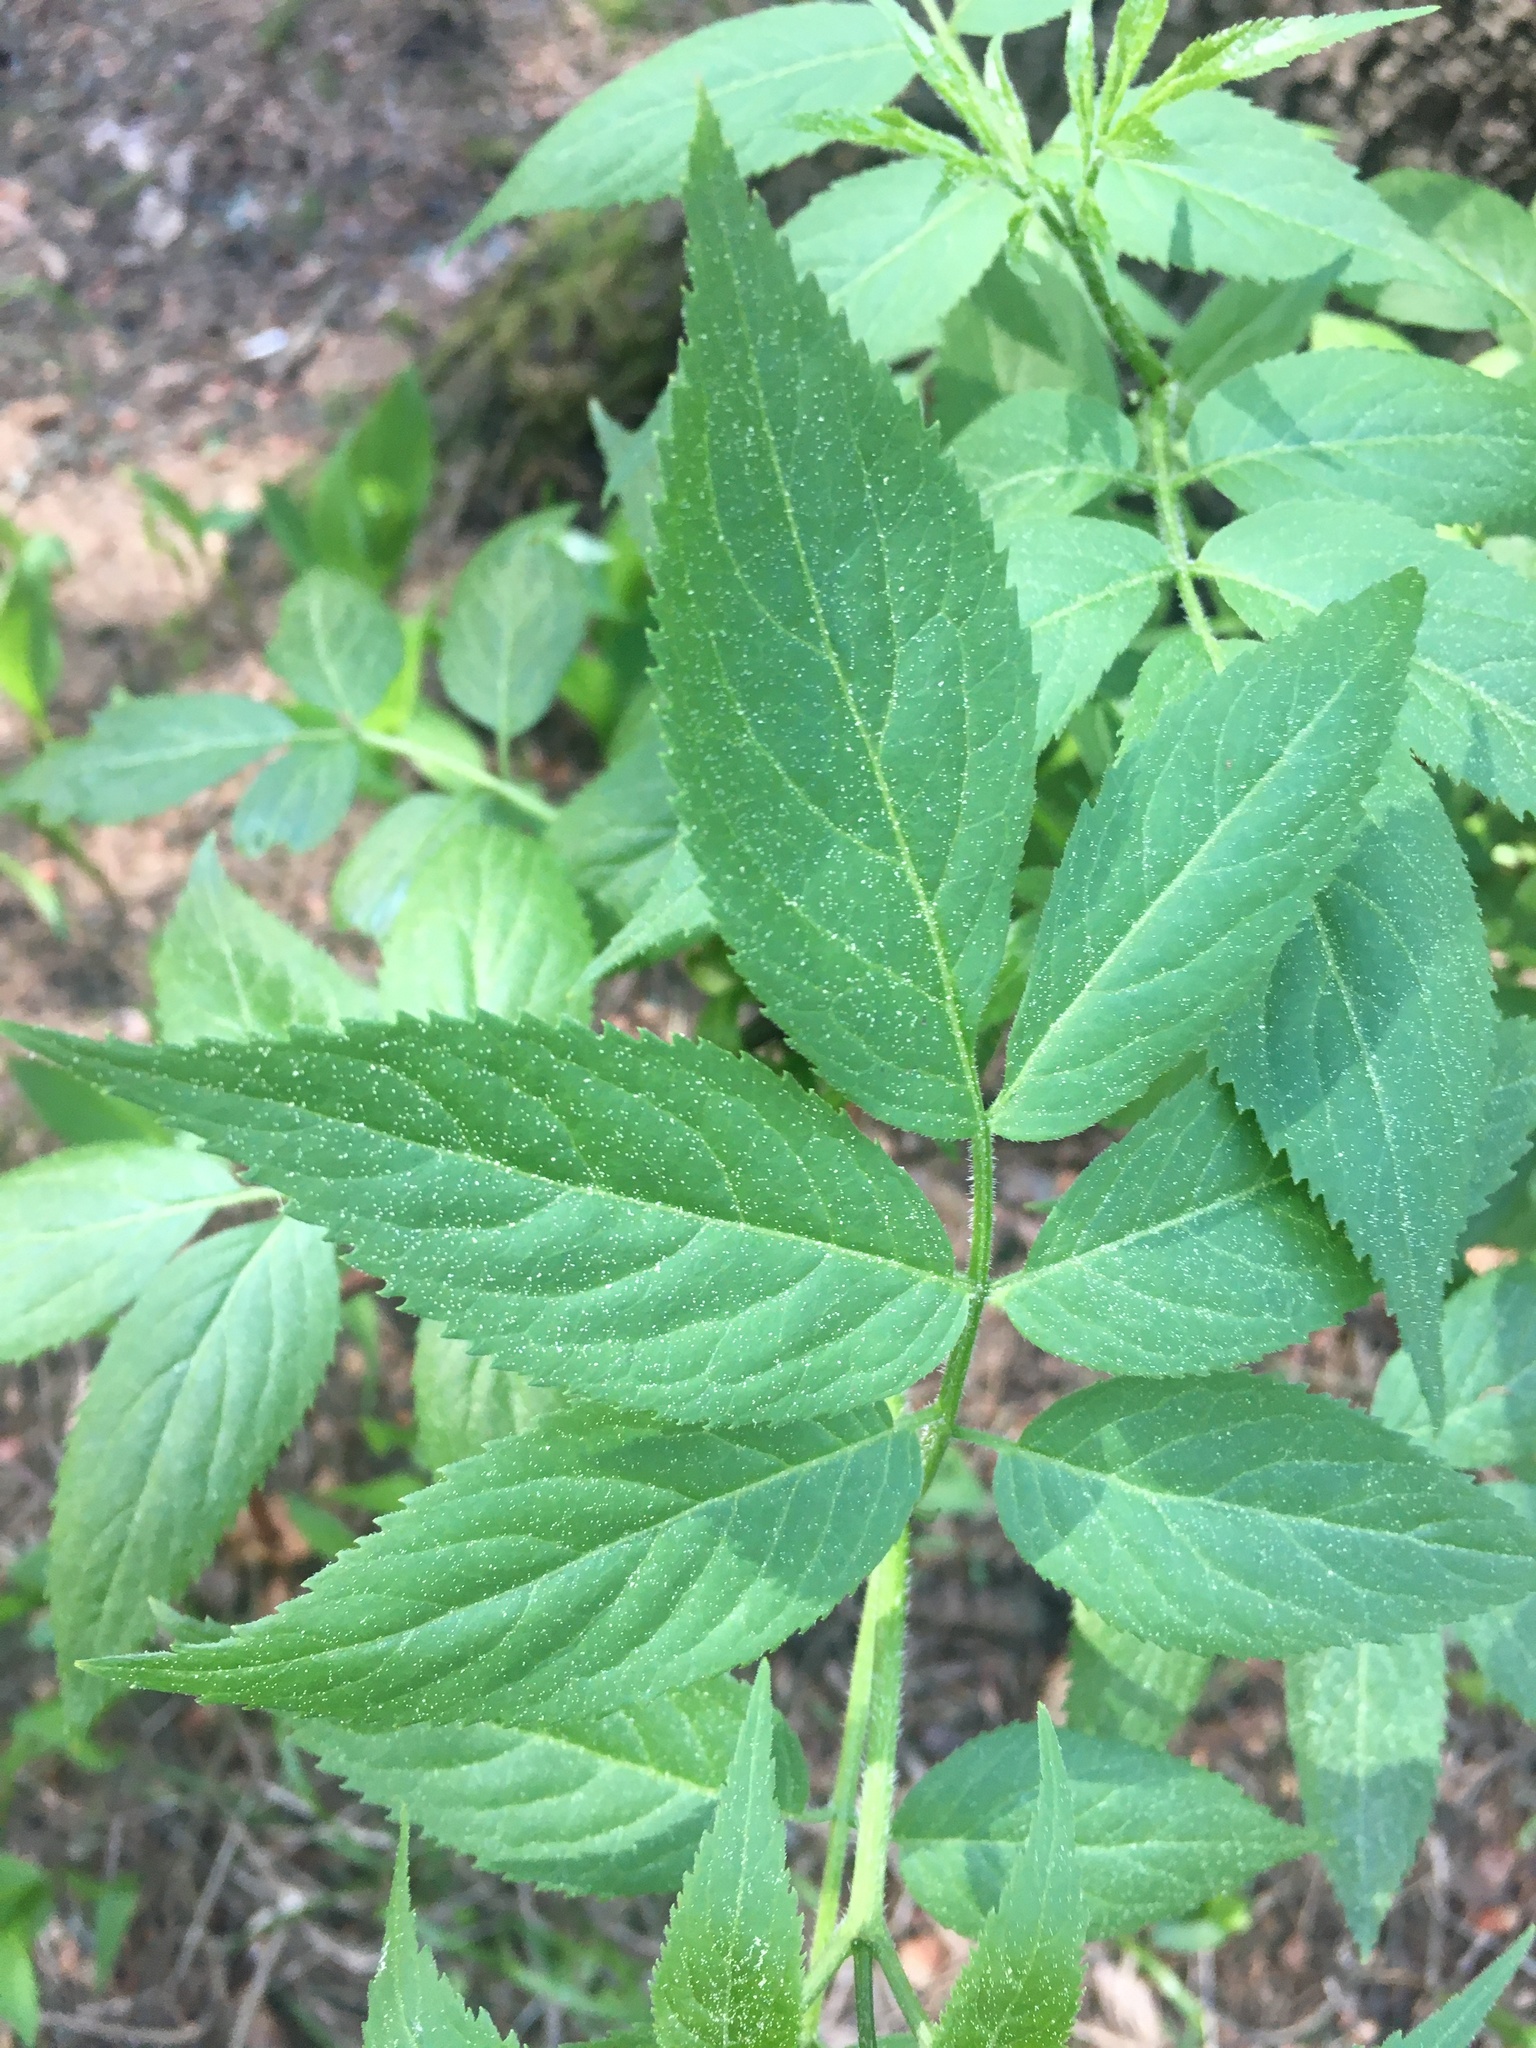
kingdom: Plantae
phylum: Tracheophyta
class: Magnoliopsida
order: Dipsacales
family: Viburnaceae
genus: Sambucus
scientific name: Sambucus racemosa
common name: Red-berried elder
